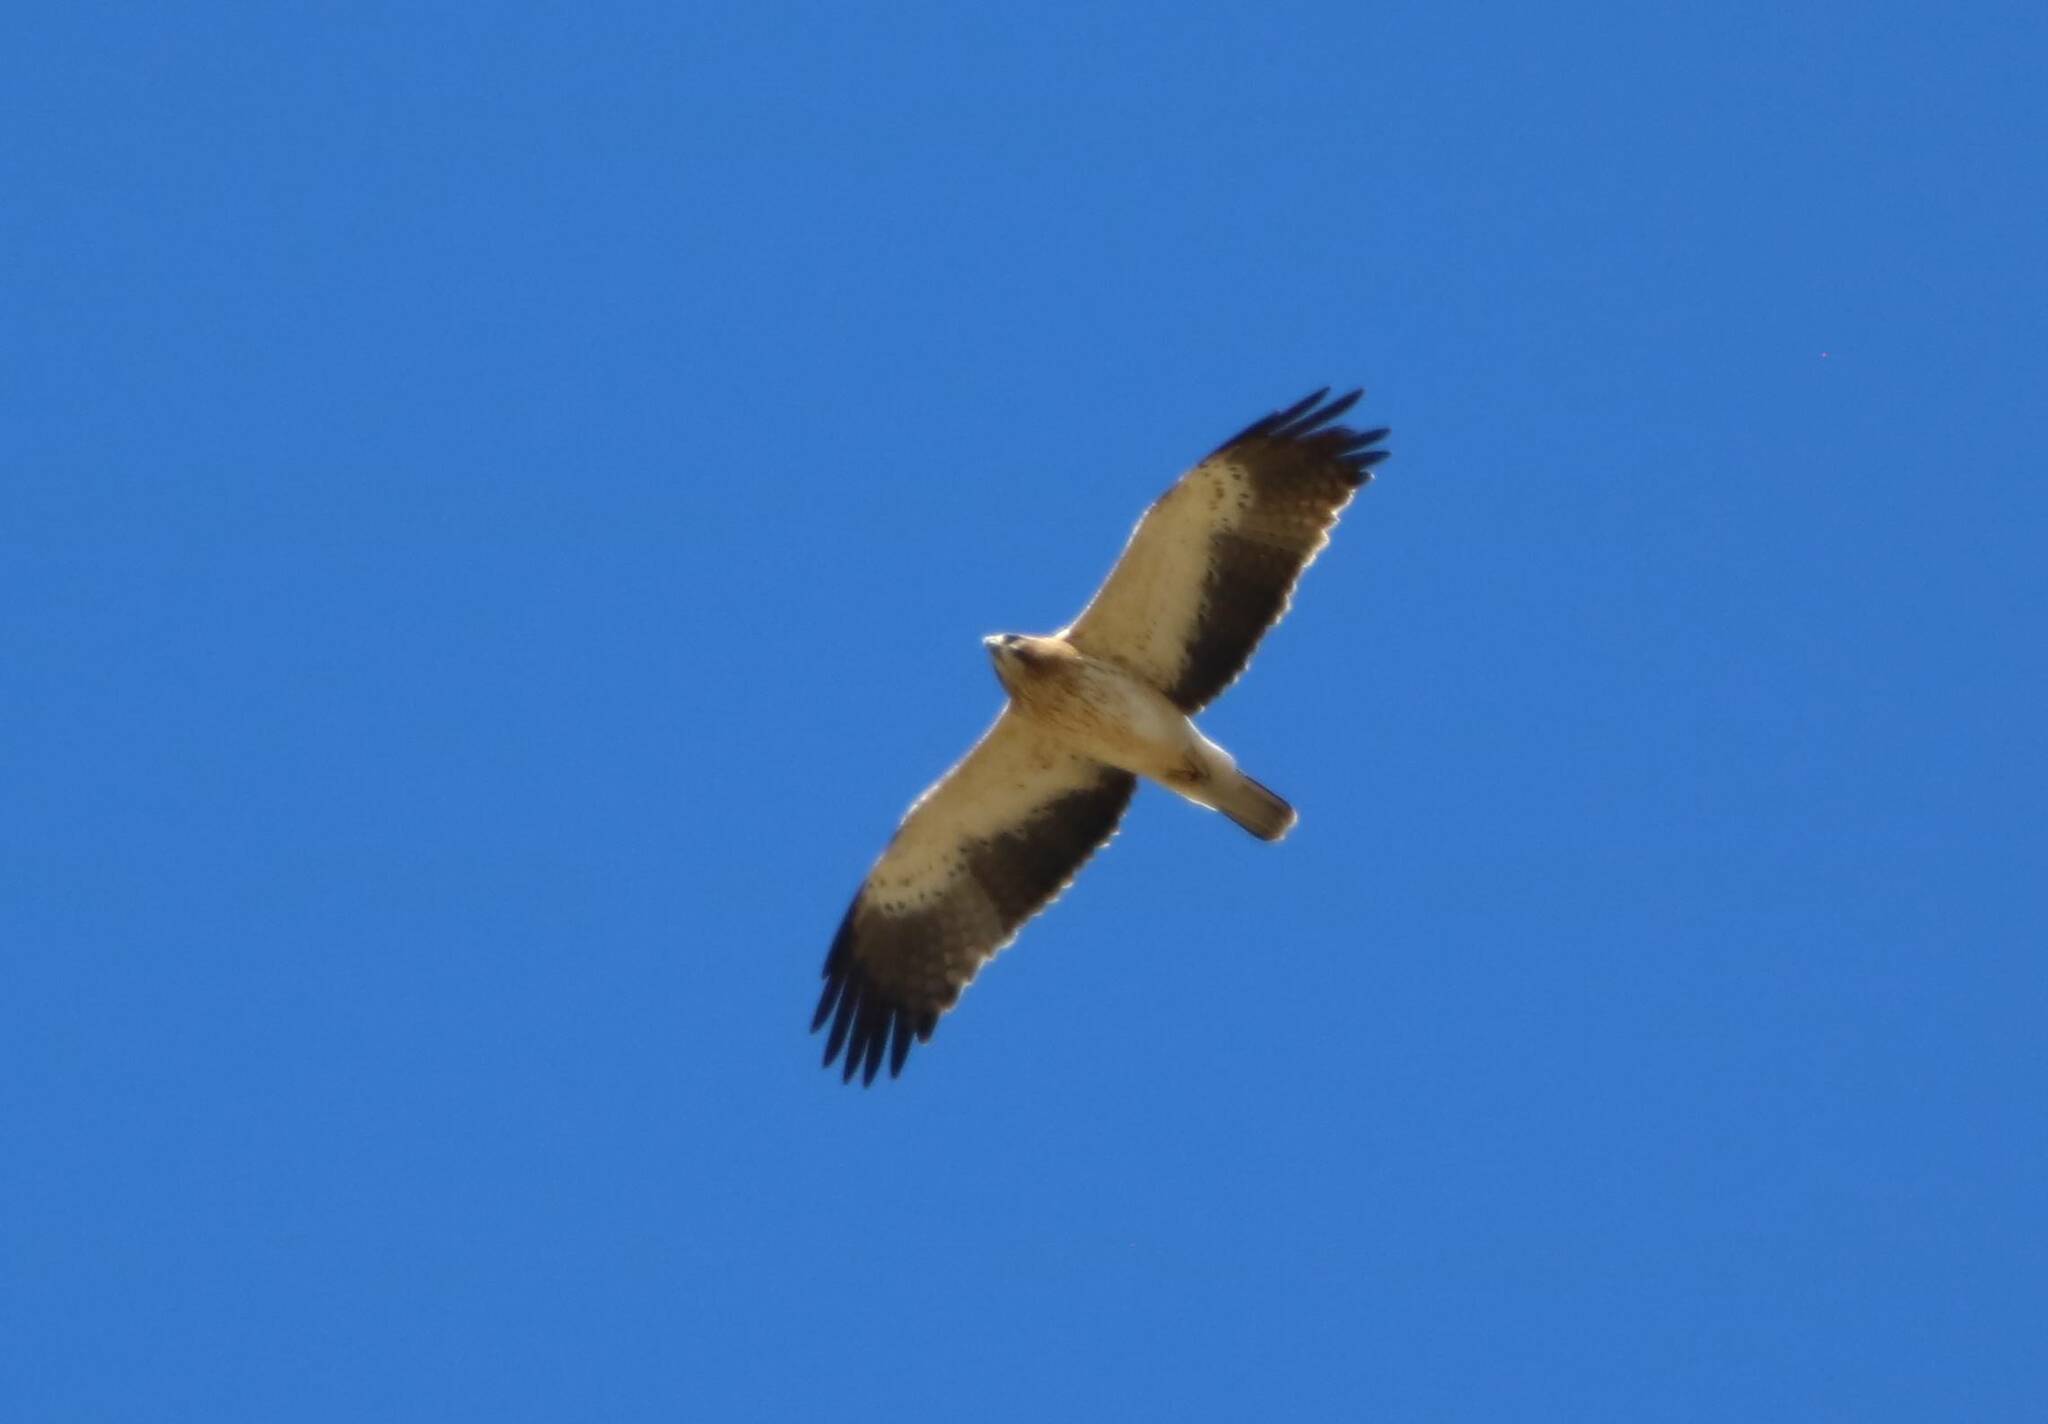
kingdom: Animalia
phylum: Chordata
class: Aves
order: Accipitriformes
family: Accipitridae
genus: Hieraaetus
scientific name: Hieraaetus pennatus
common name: Booted eagle
